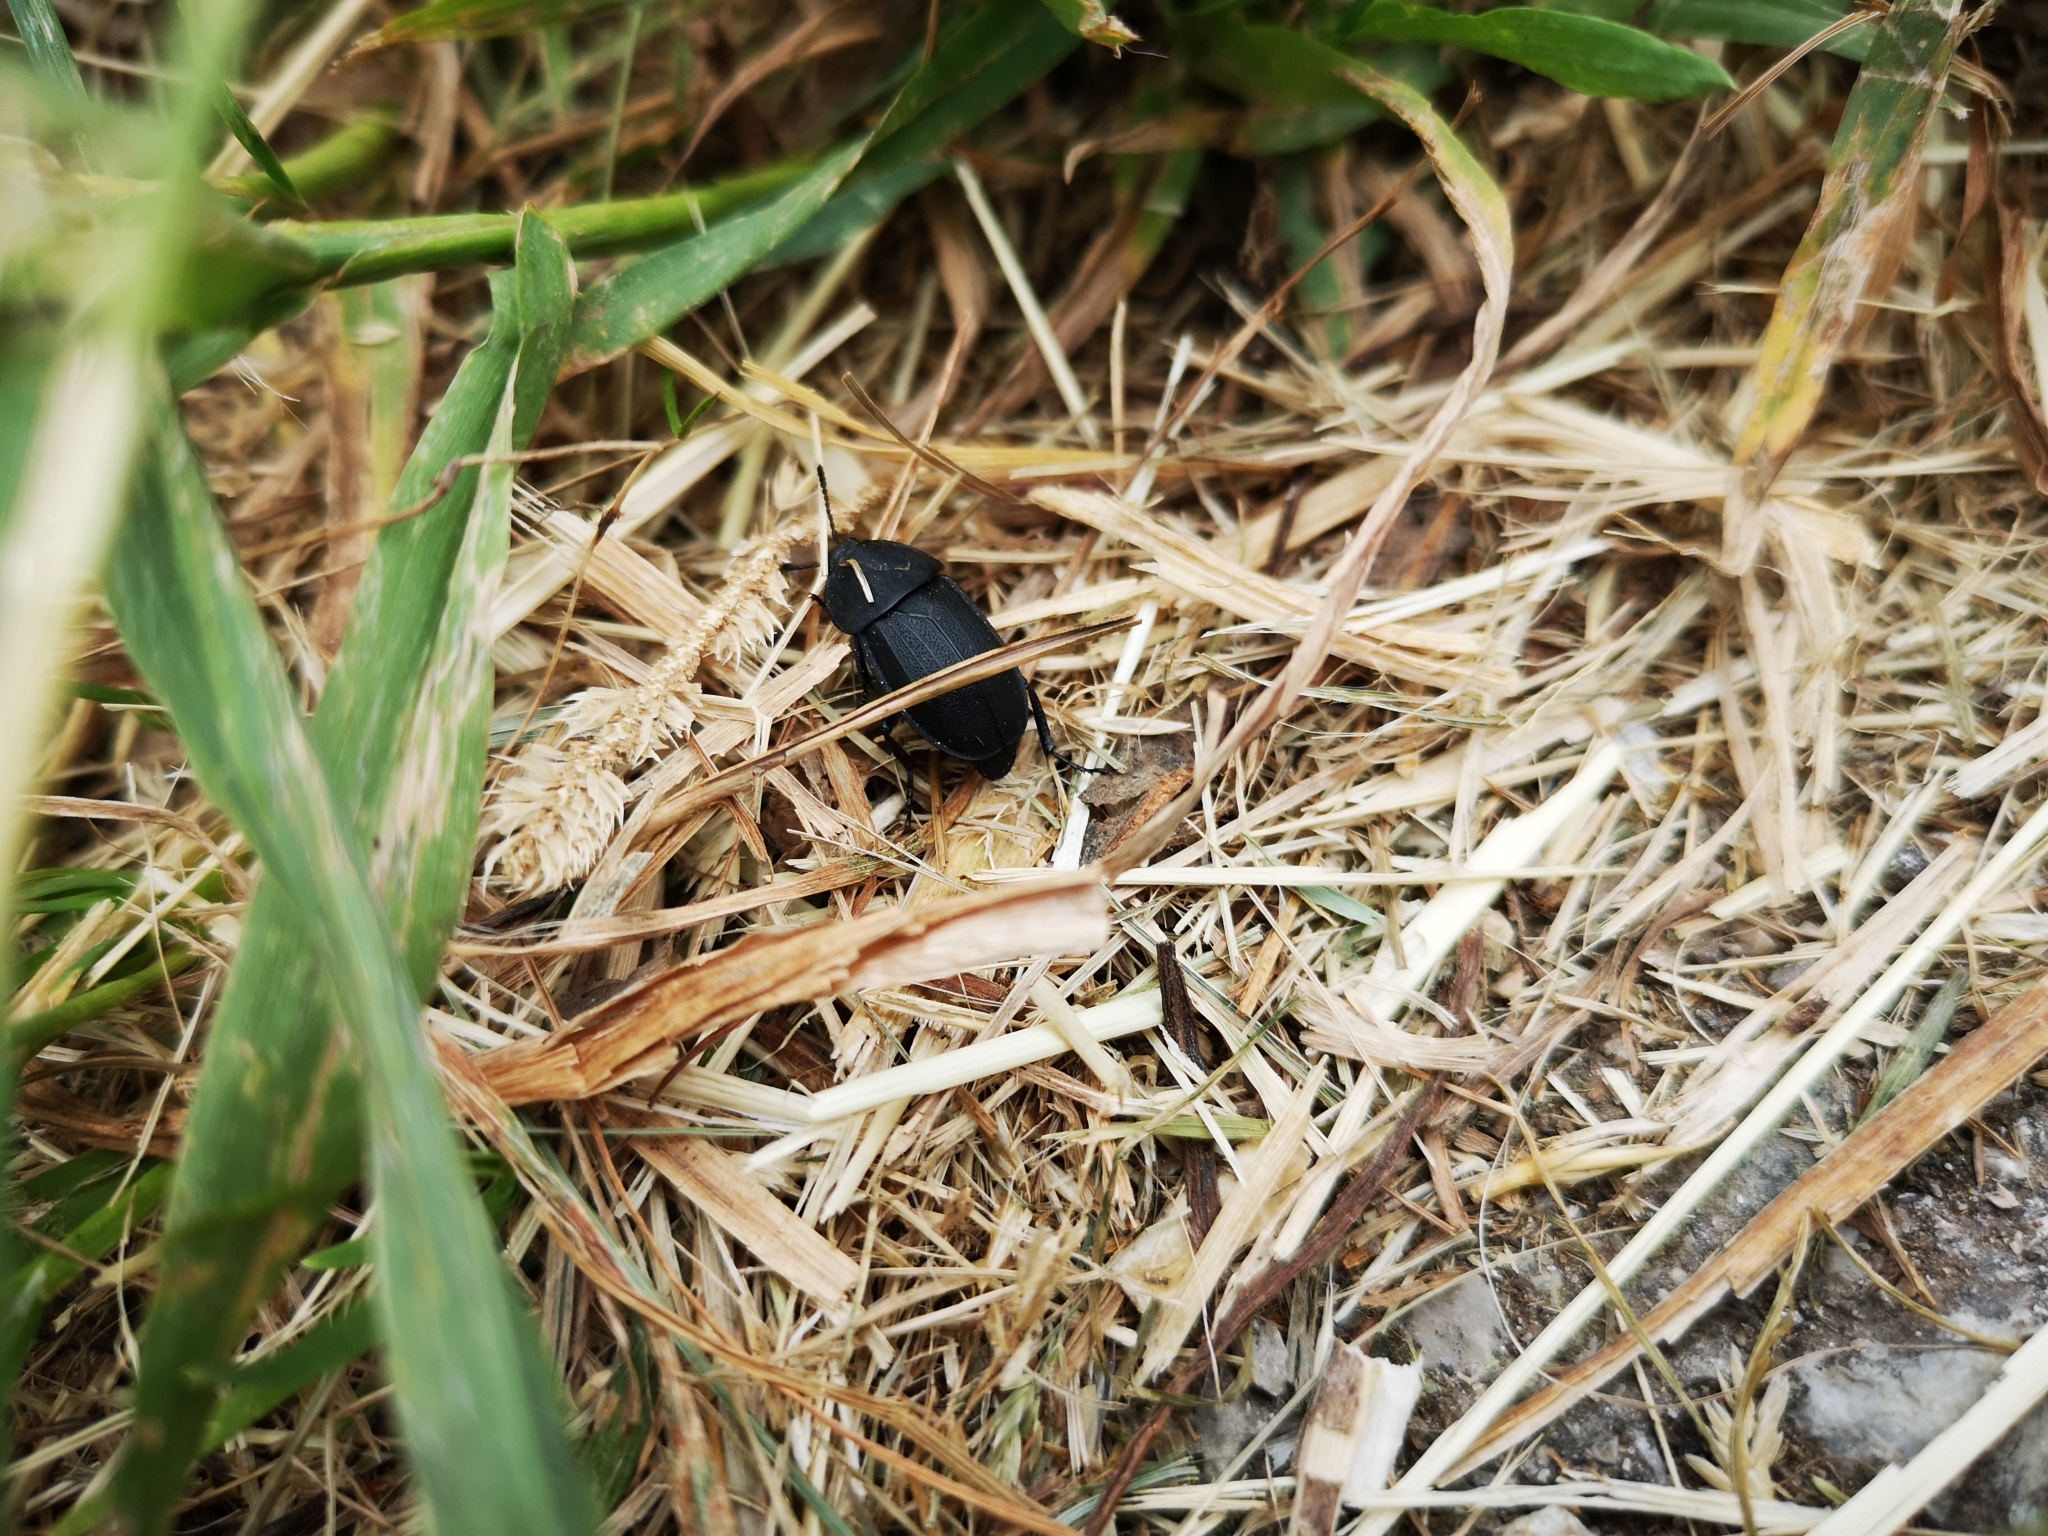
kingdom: Animalia
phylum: Arthropoda
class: Insecta
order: Coleoptera
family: Staphylinidae
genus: Silpha
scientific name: Silpha obscura
